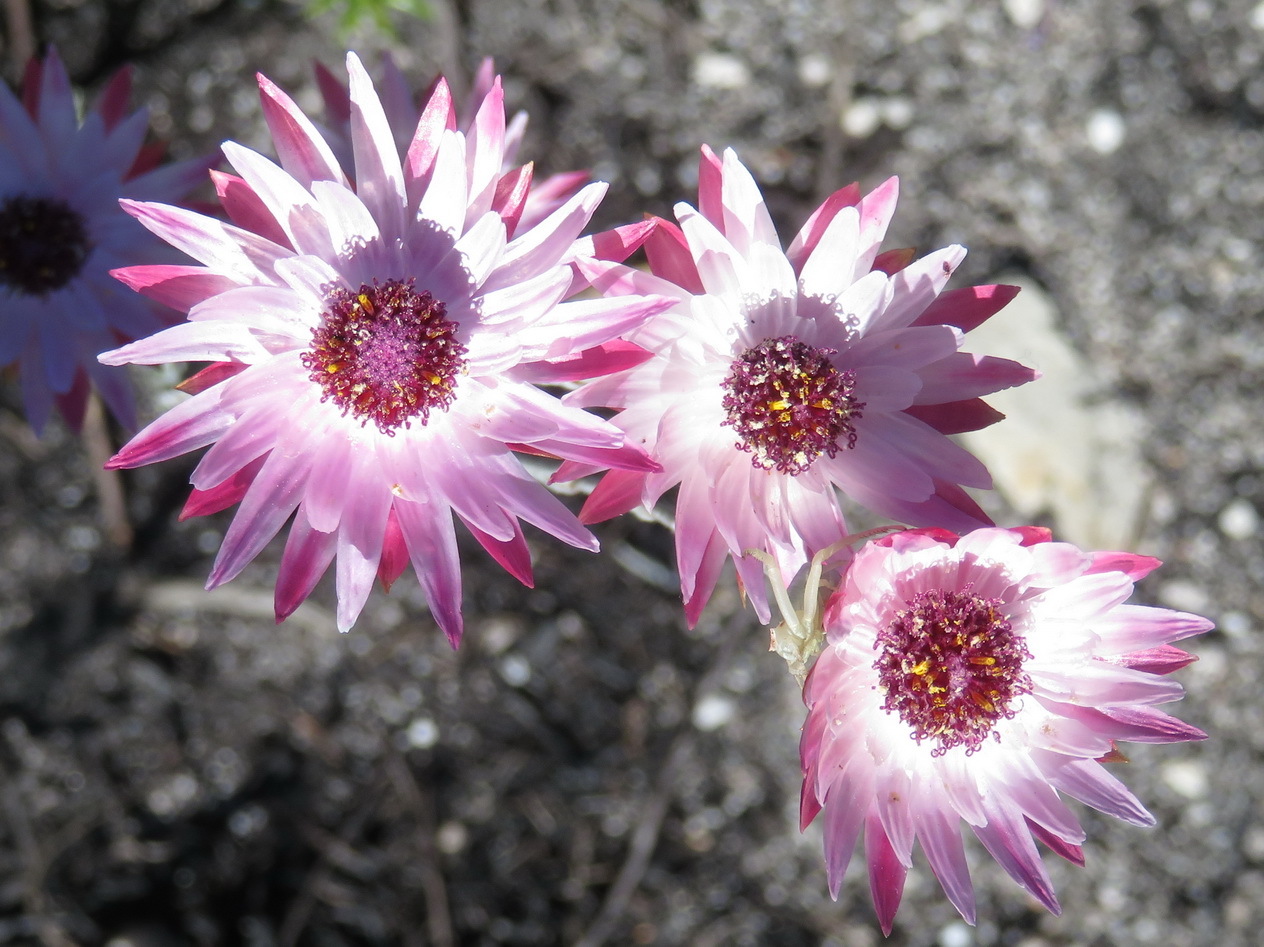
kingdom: Plantae
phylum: Tracheophyta
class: Magnoliopsida
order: Asterales
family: Asteraceae
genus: Syncarpha
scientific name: Syncarpha canescens
